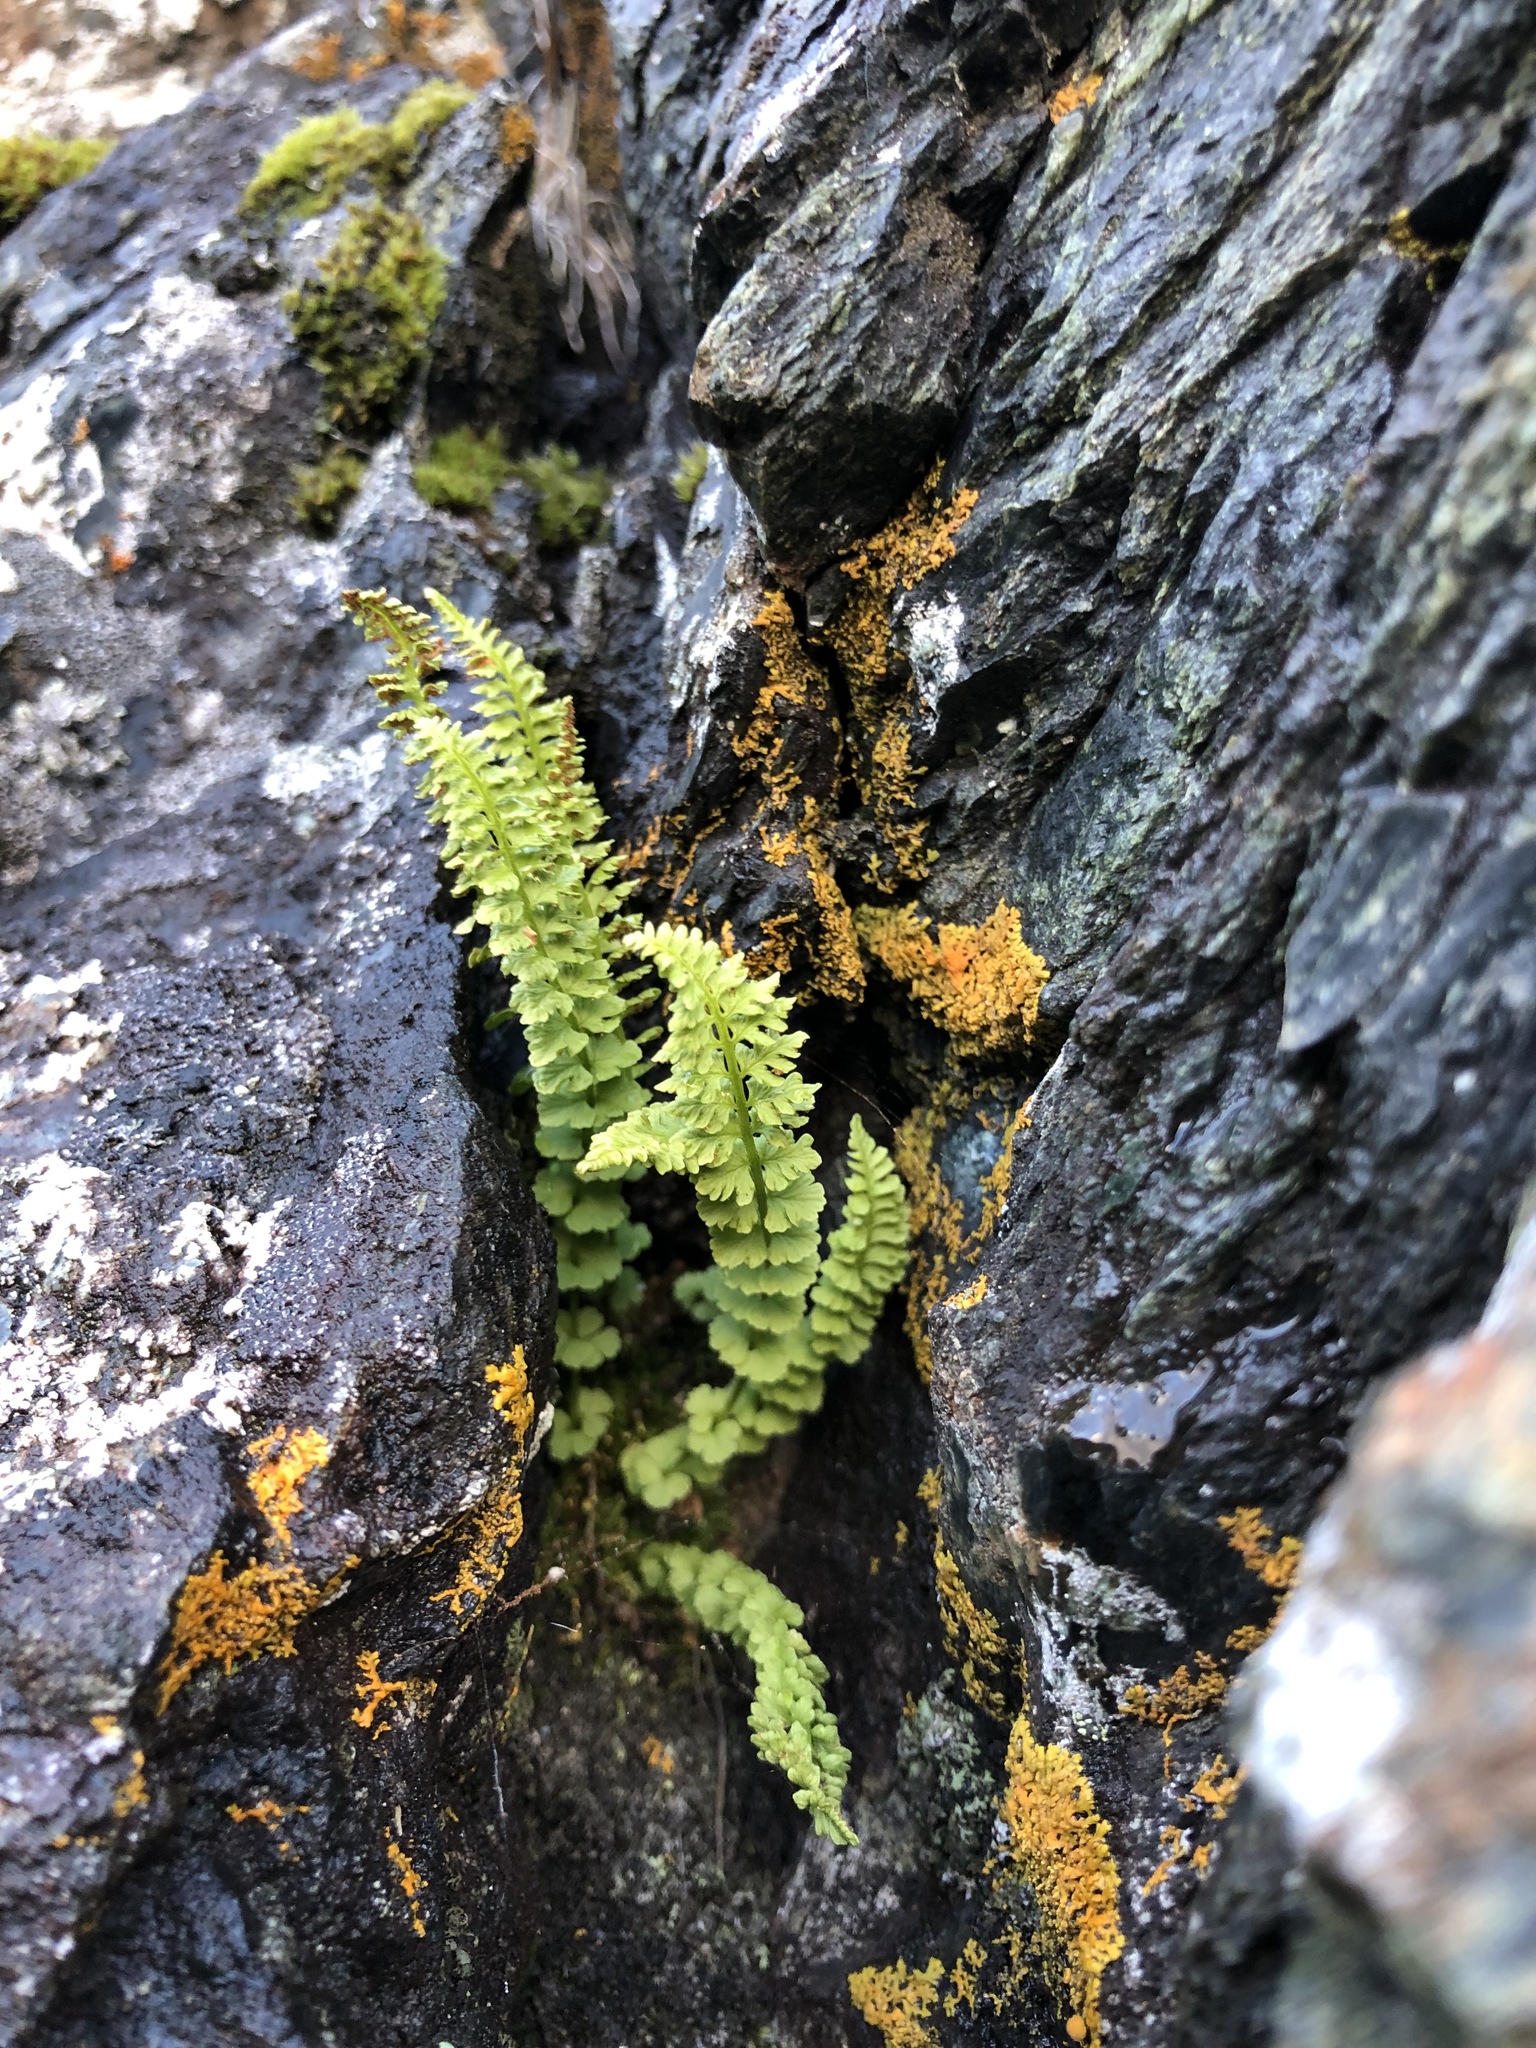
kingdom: Plantae
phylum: Tracheophyta
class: Polypodiopsida
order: Polypodiales
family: Woodsiaceae
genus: Woodsia
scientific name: Woodsia glabella
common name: Smooth woodsia
